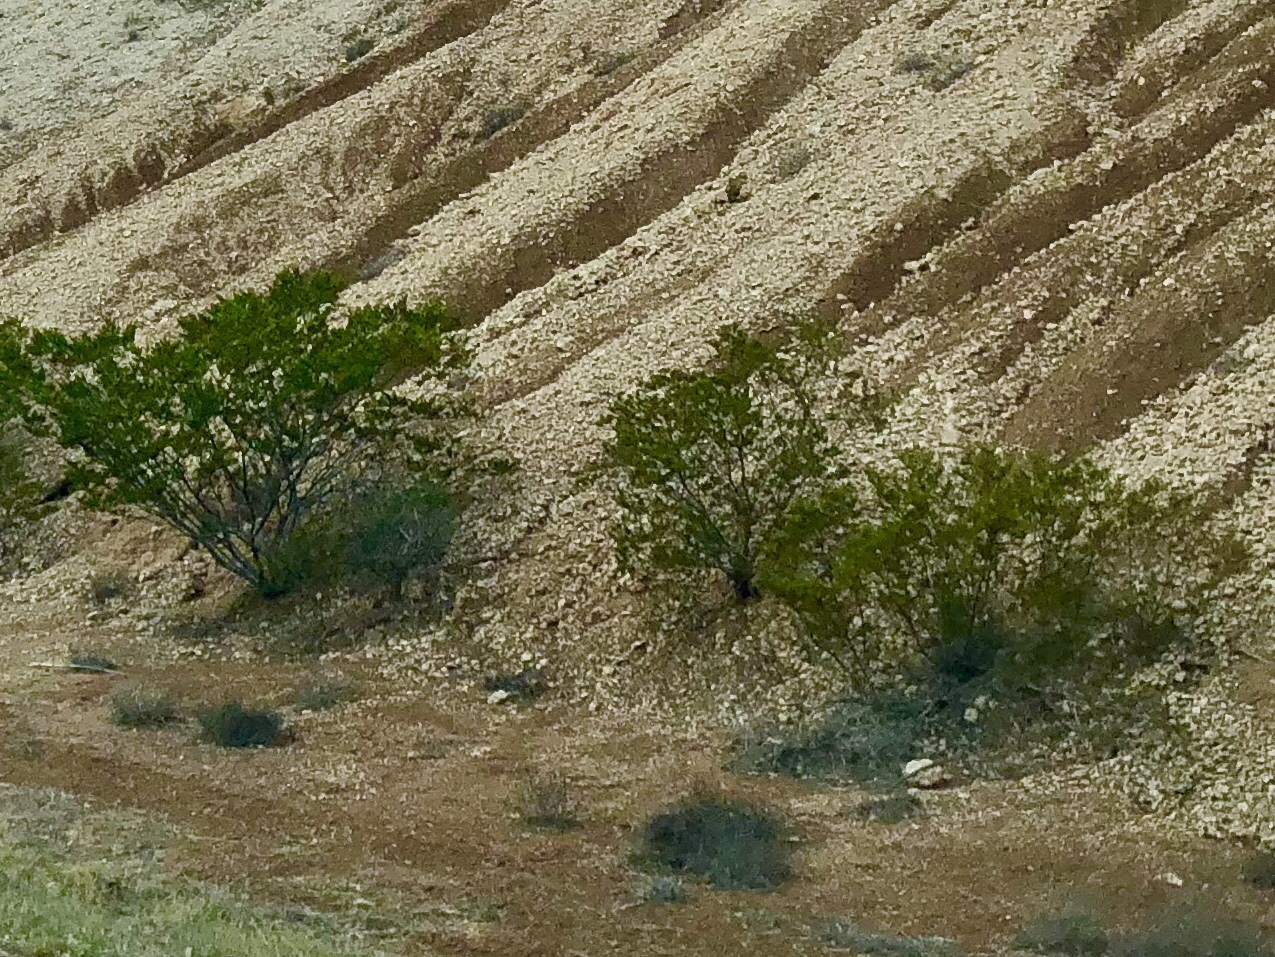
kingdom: Plantae
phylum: Tracheophyta
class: Magnoliopsida
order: Zygophyllales
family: Zygophyllaceae
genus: Larrea
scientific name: Larrea tridentata
